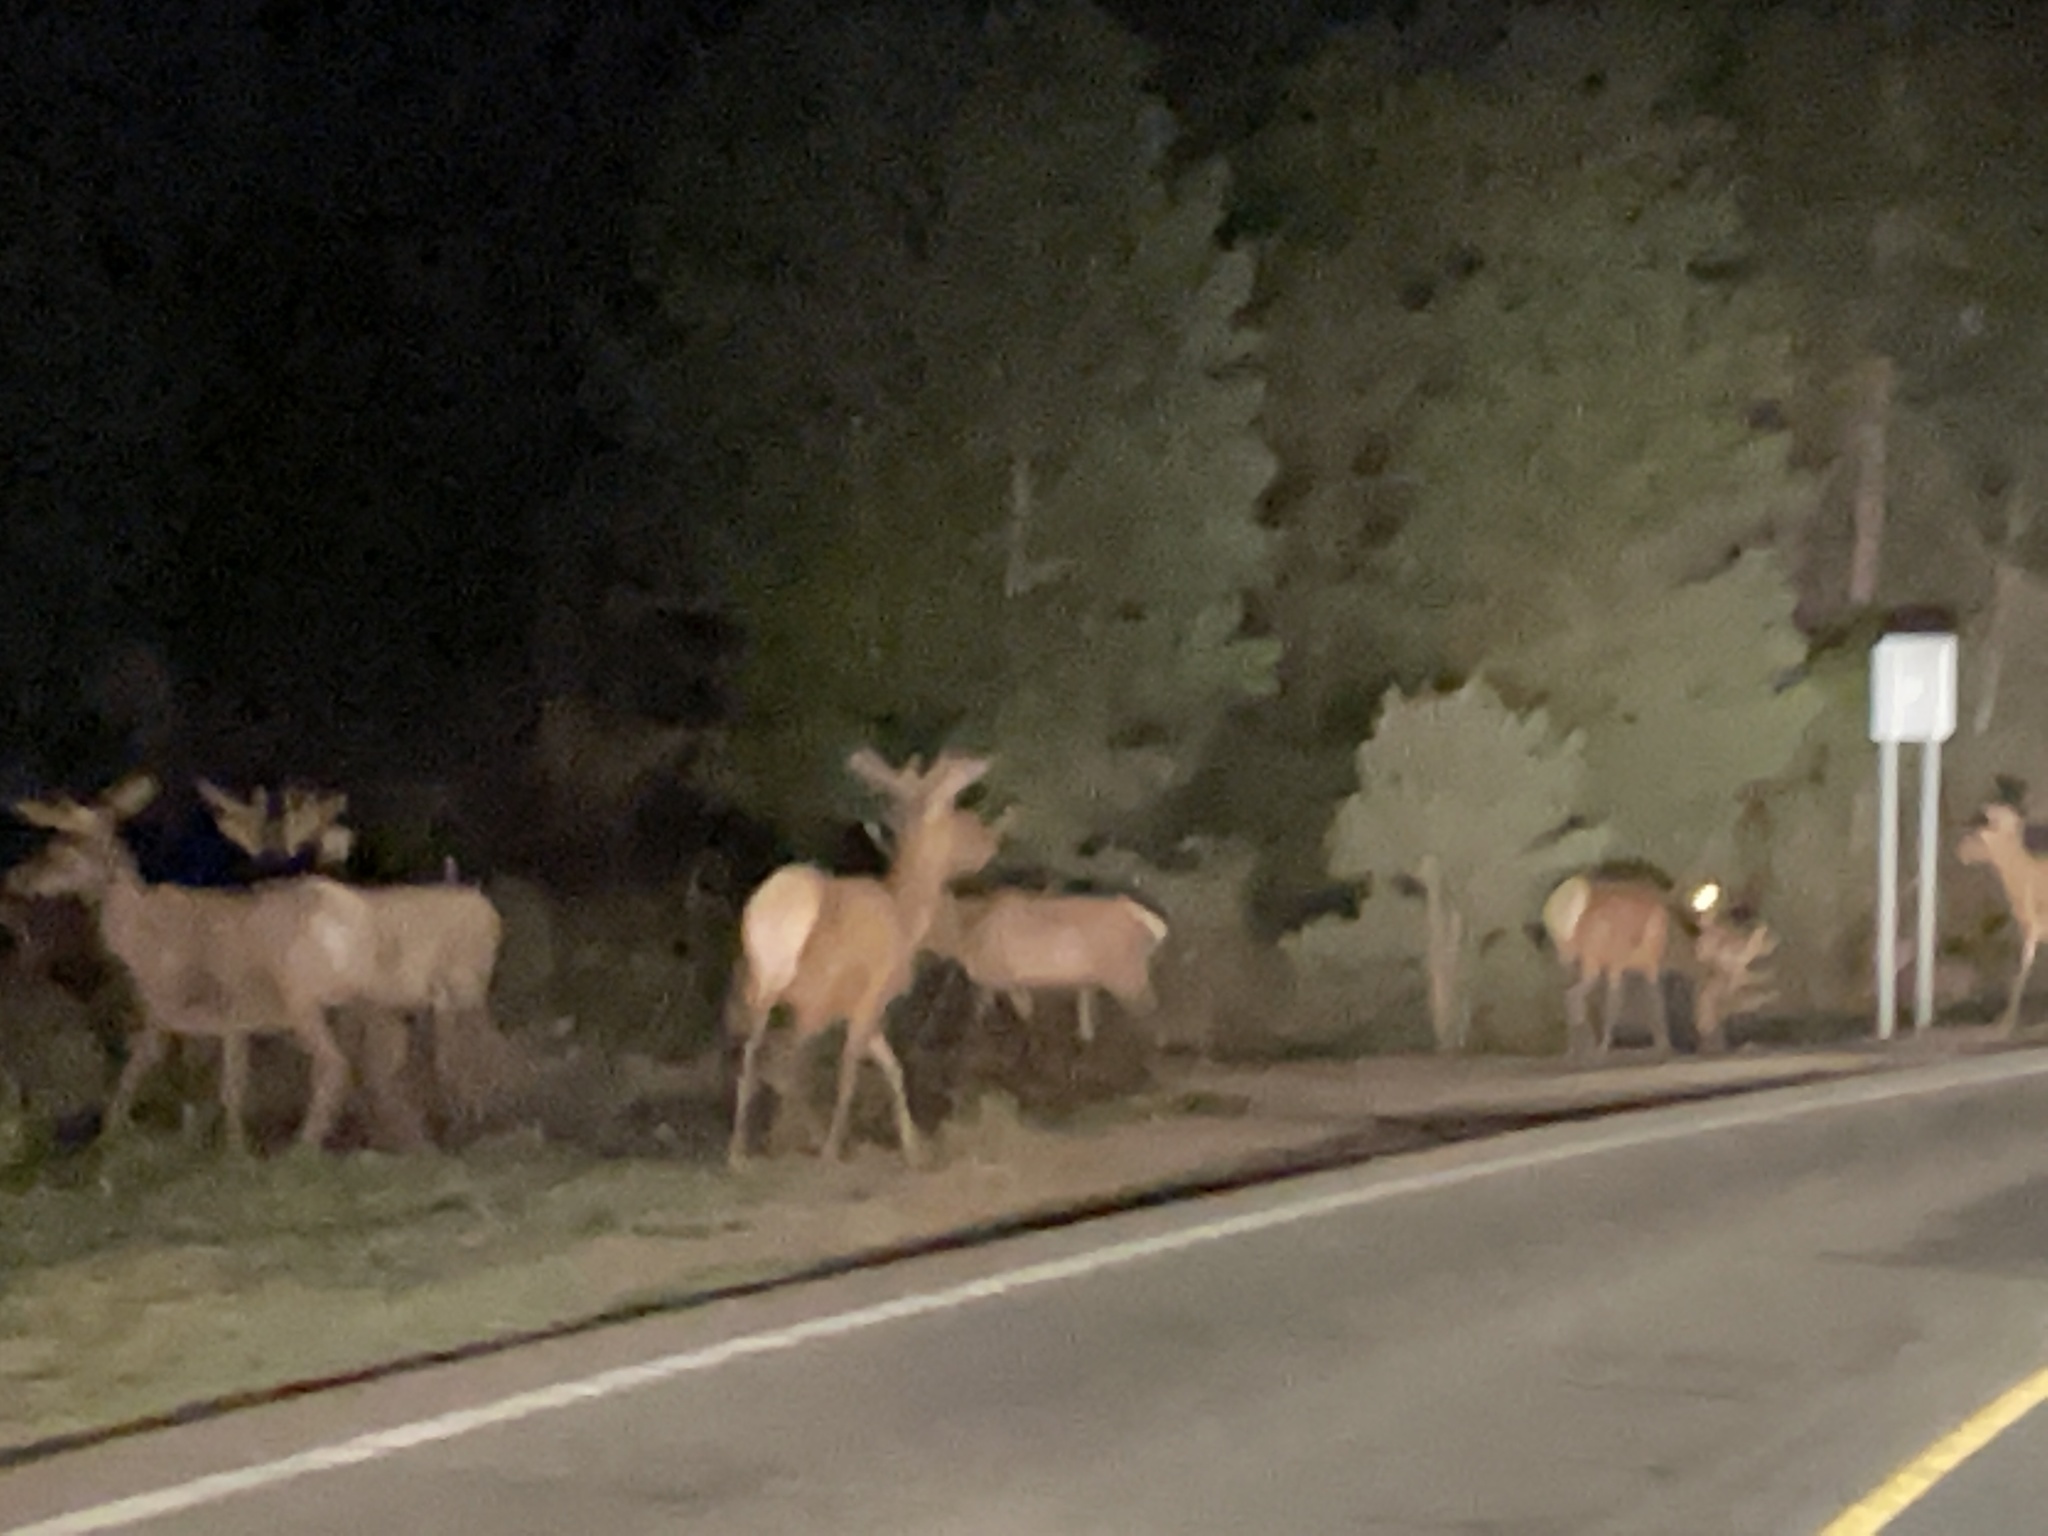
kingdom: Animalia
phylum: Chordata
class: Mammalia
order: Artiodactyla
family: Cervidae
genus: Cervus
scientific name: Cervus elaphus
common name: Red deer
